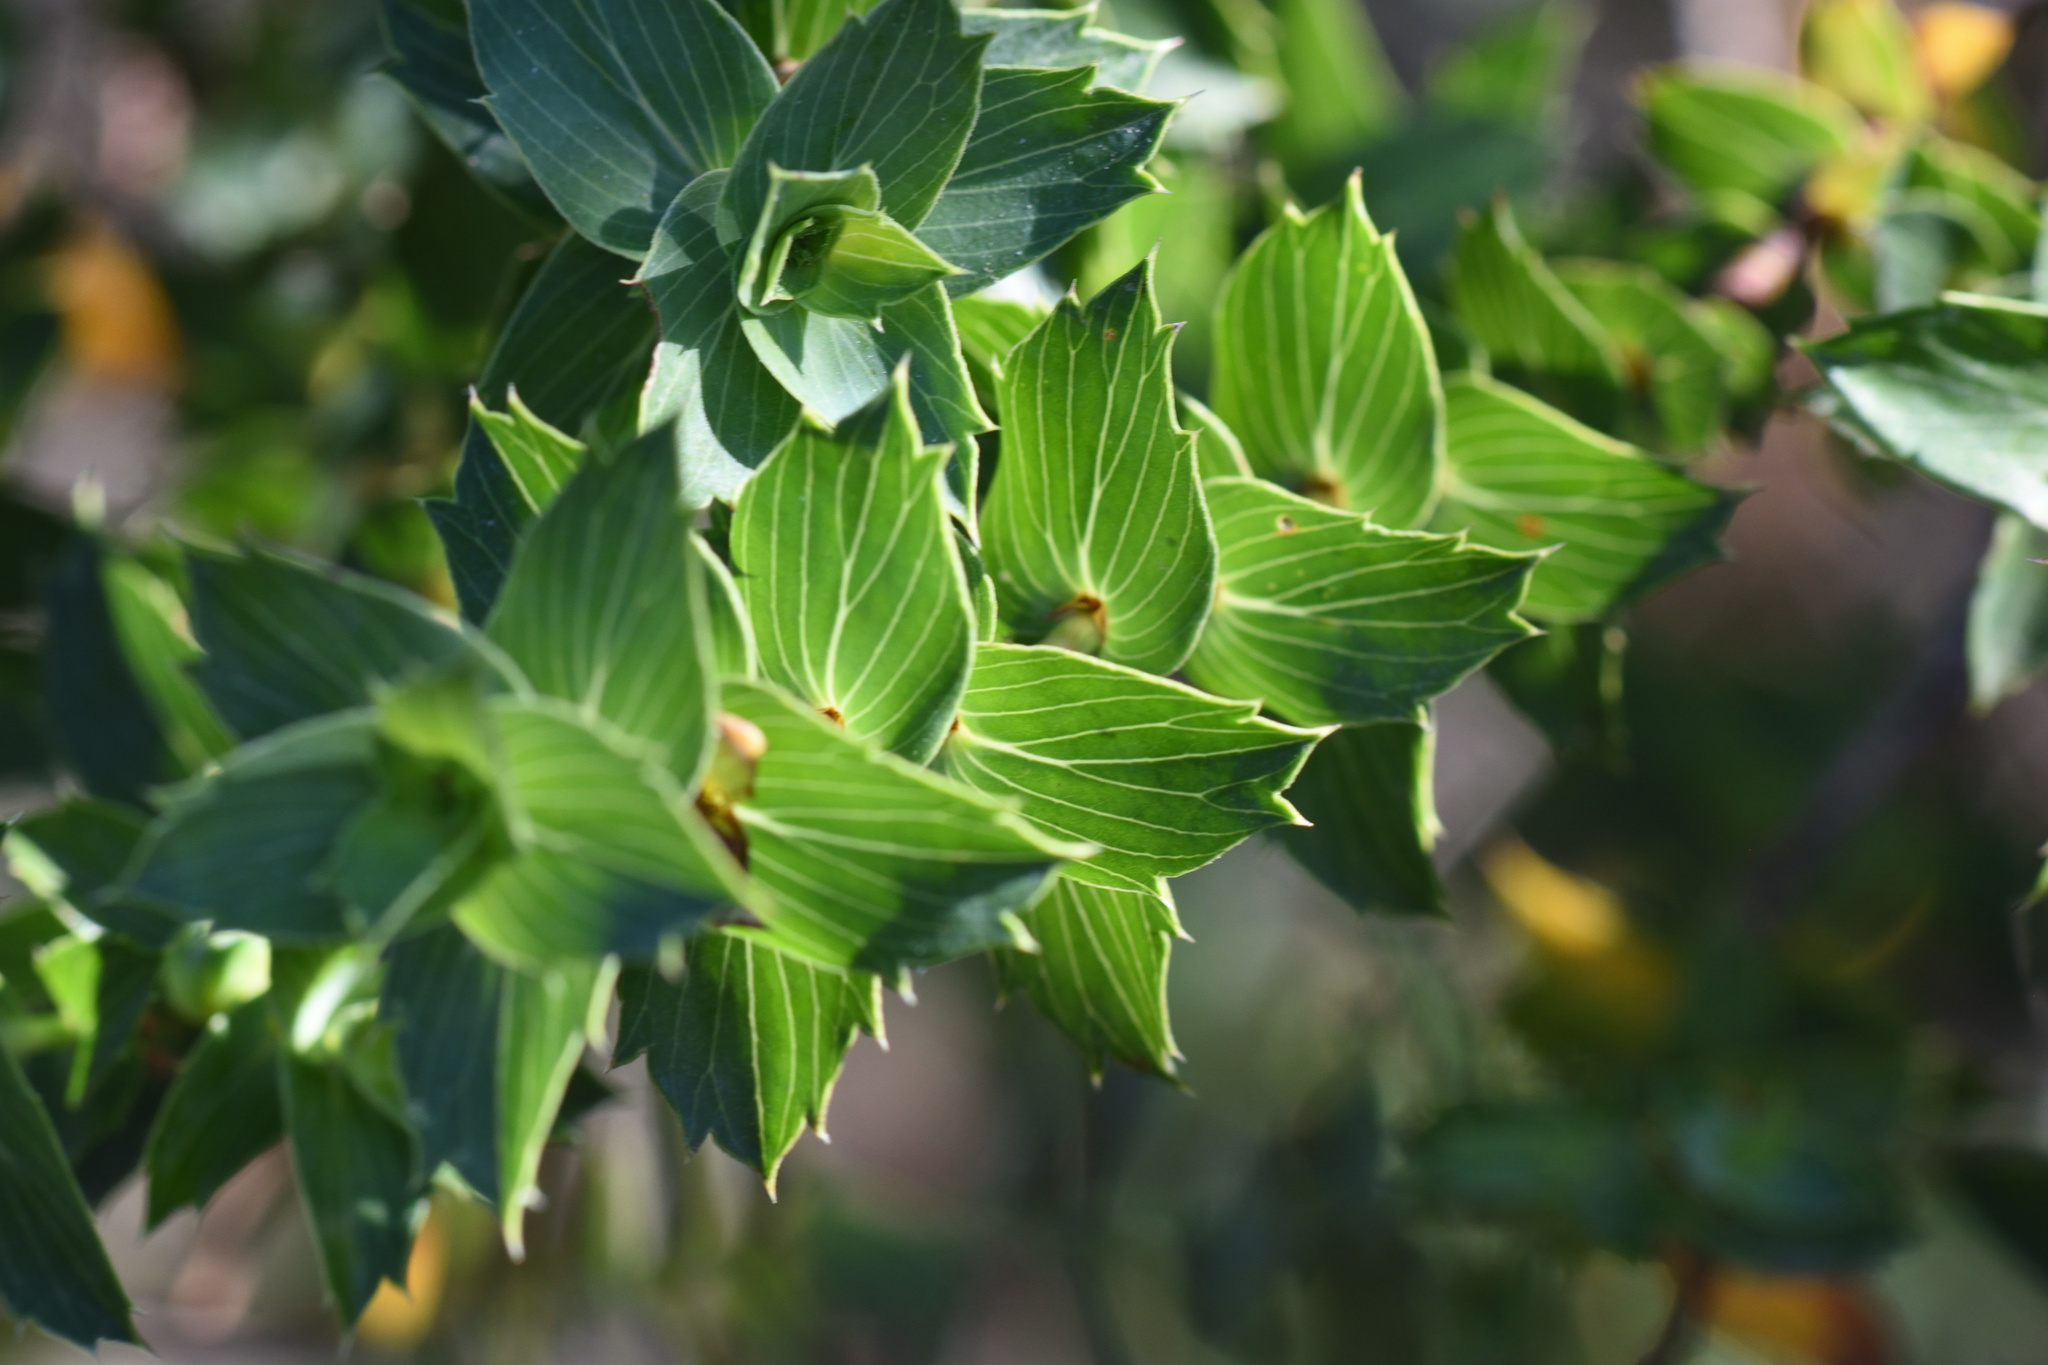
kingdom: Plantae
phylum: Tracheophyta
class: Magnoliopsida
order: Rosales
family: Rosaceae
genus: Cliffortia
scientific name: Cliffortia ilicifolia
